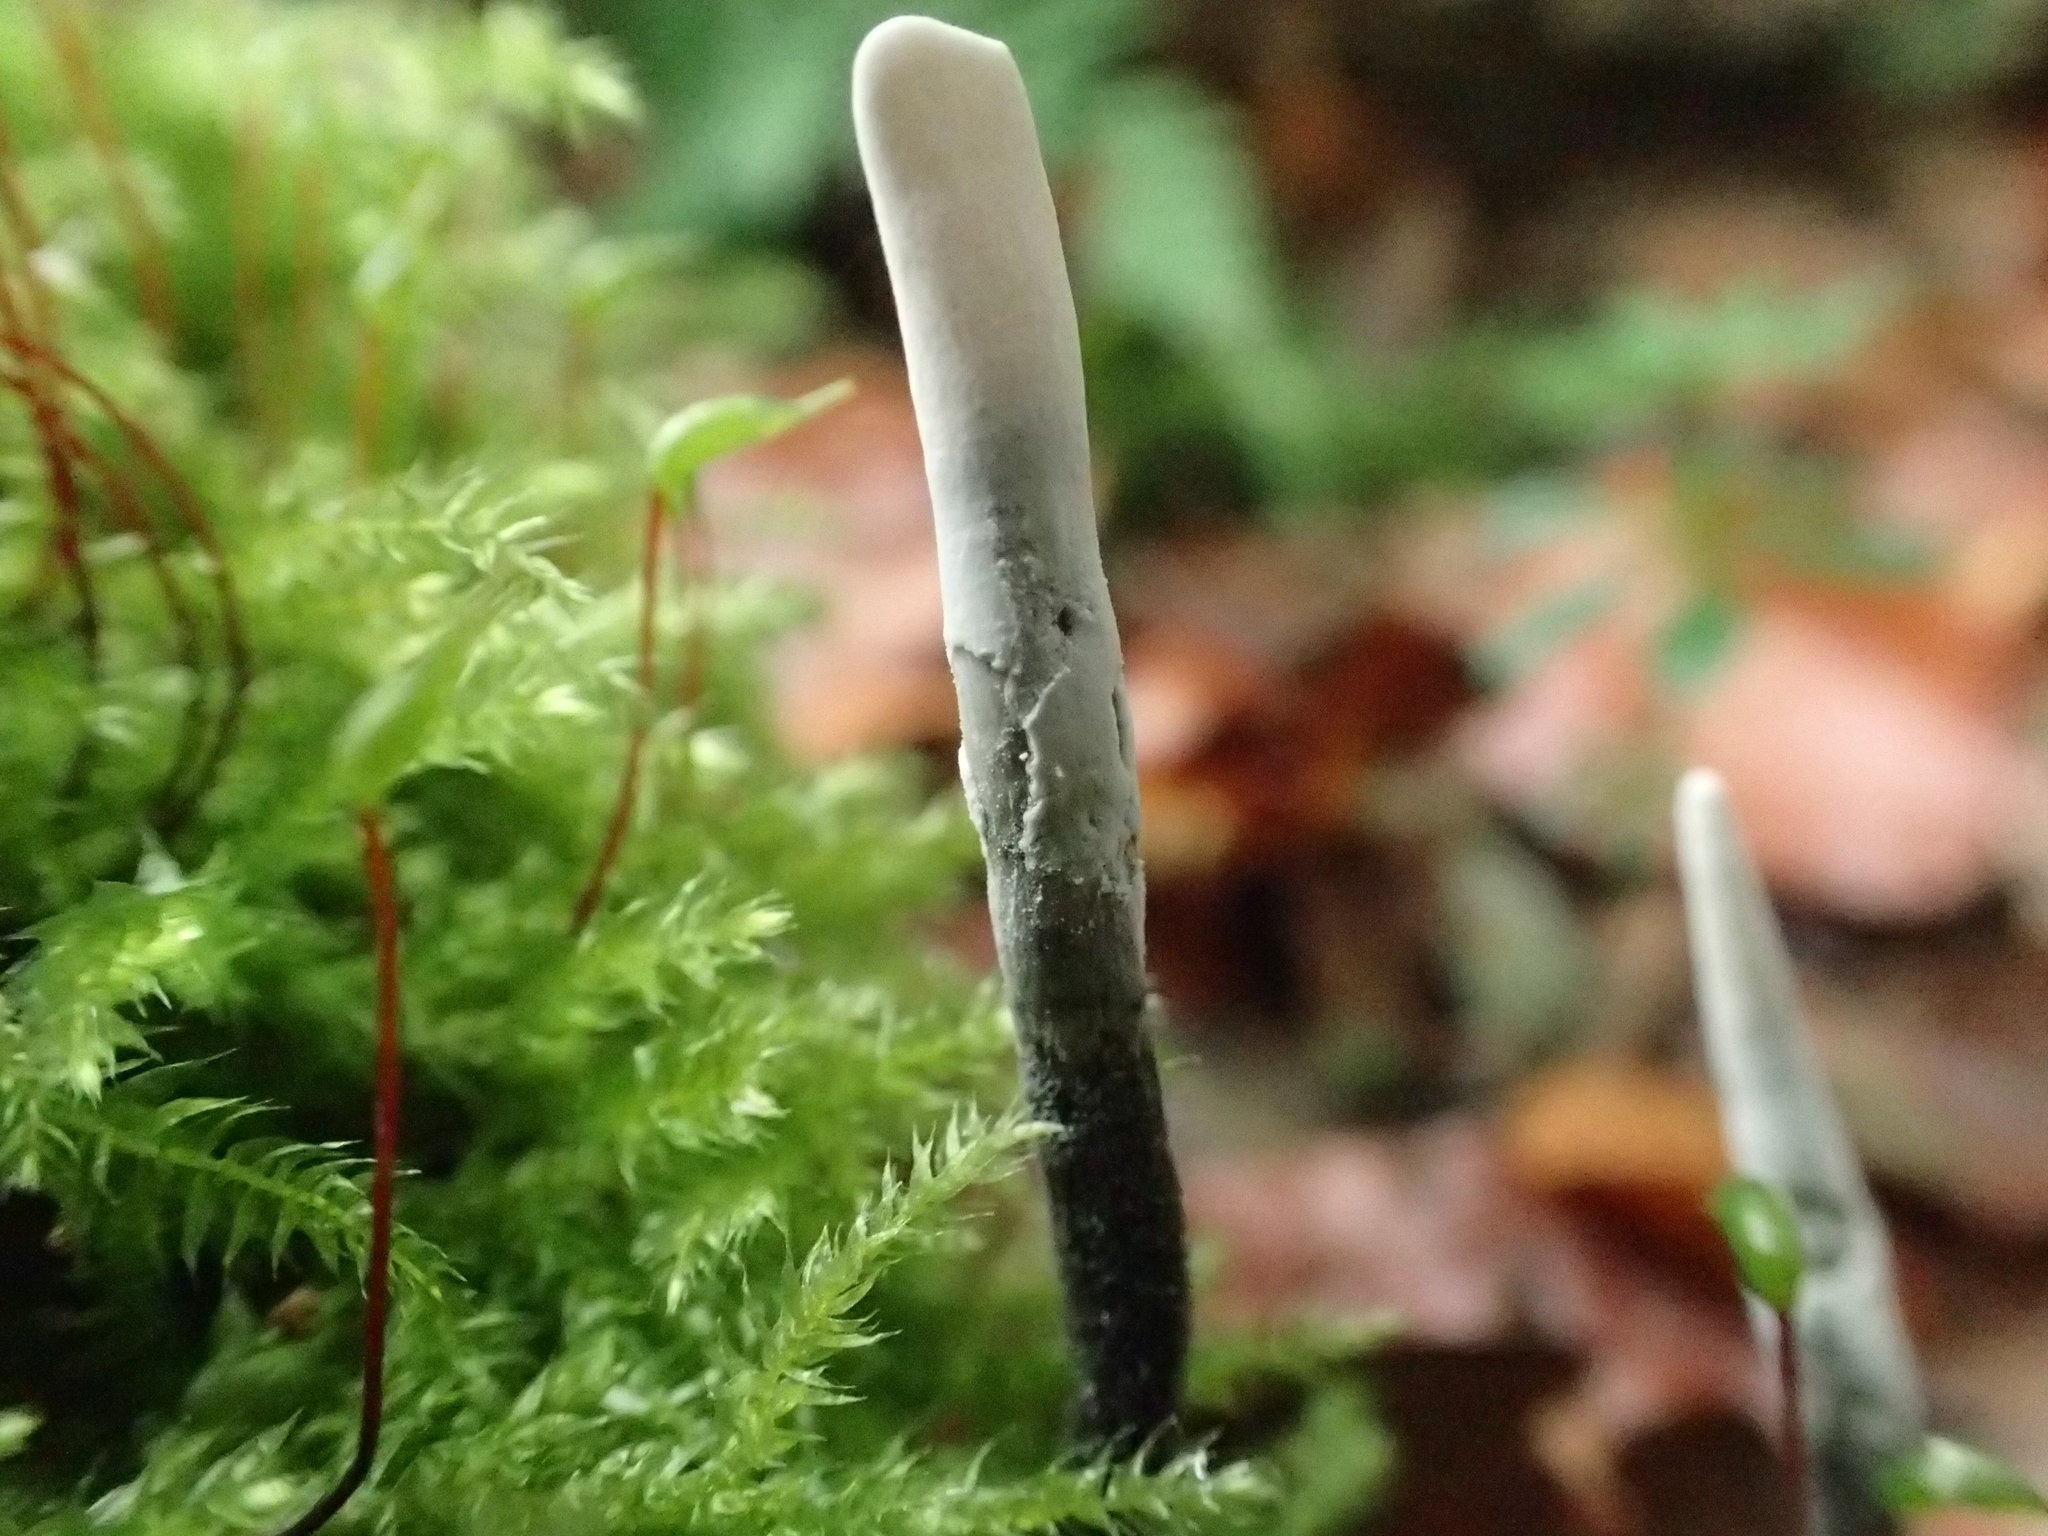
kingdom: Fungi
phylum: Ascomycota
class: Sordariomycetes
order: Xylariales
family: Xylariaceae
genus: Xylaria
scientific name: Xylaria hypoxylon
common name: Candle-snuff fungus
